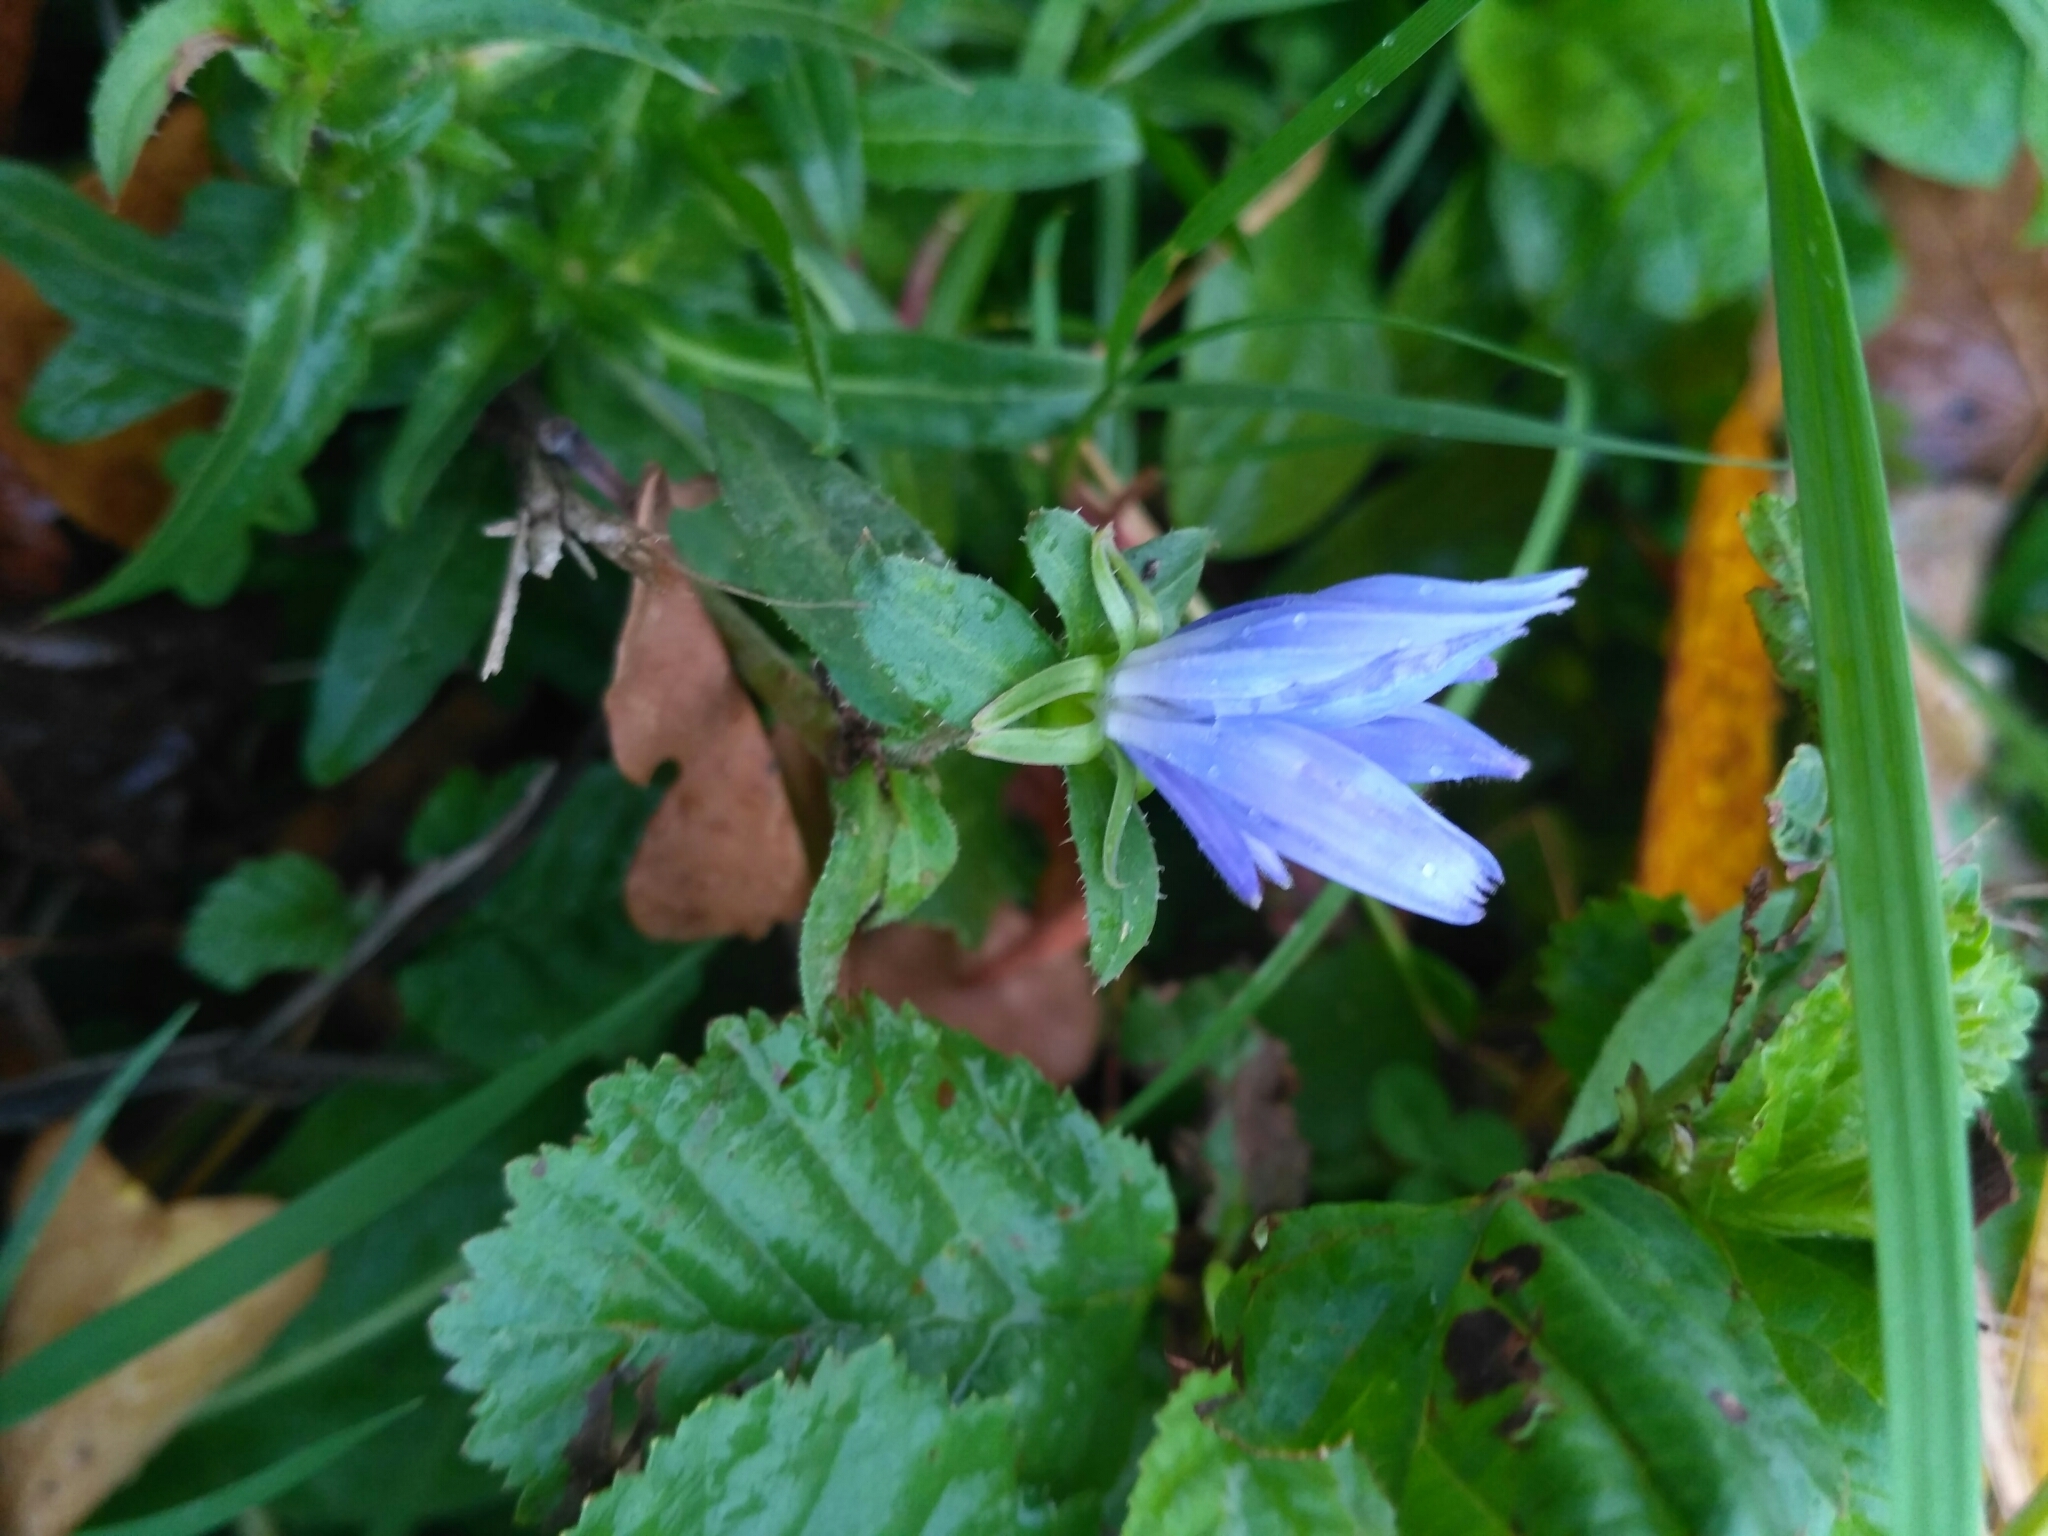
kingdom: Plantae
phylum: Tracheophyta
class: Magnoliopsida
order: Asterales
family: Asteraceae
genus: Cichorium
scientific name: Cichorium intybus
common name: Chicory
